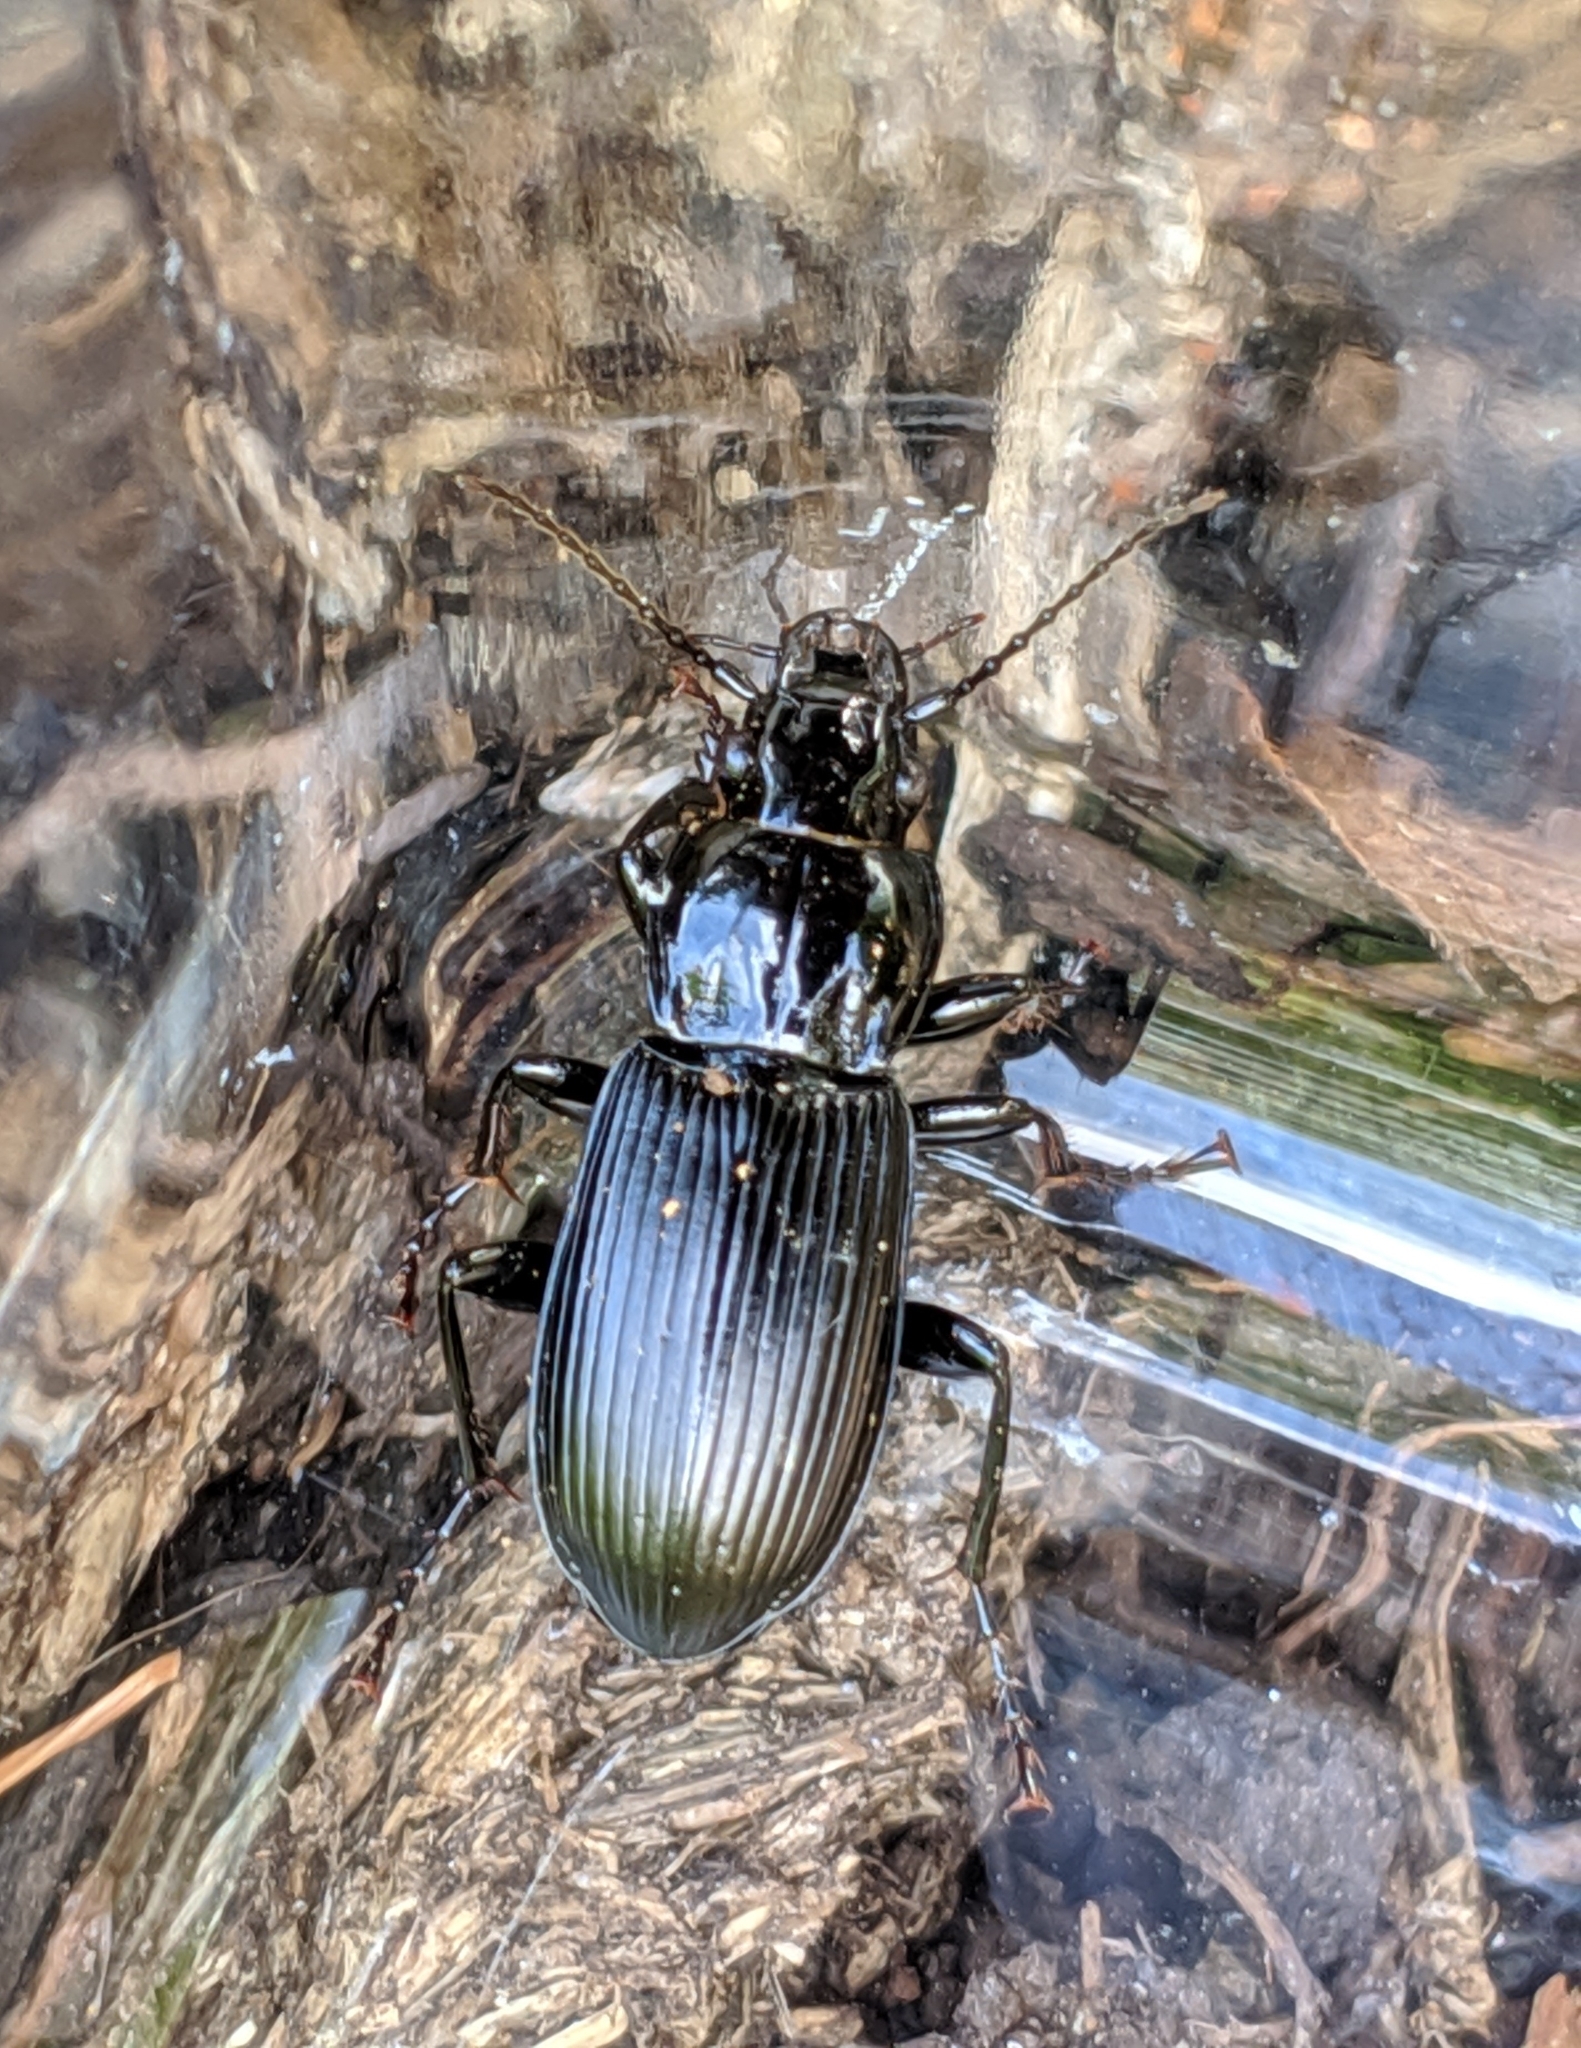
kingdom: Animalia
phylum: Arthropoda
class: Insecta
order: Coleoptera
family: Carabidae
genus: Pterostichus
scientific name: Pterostichus melanarius
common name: European dark harp ground beetle
